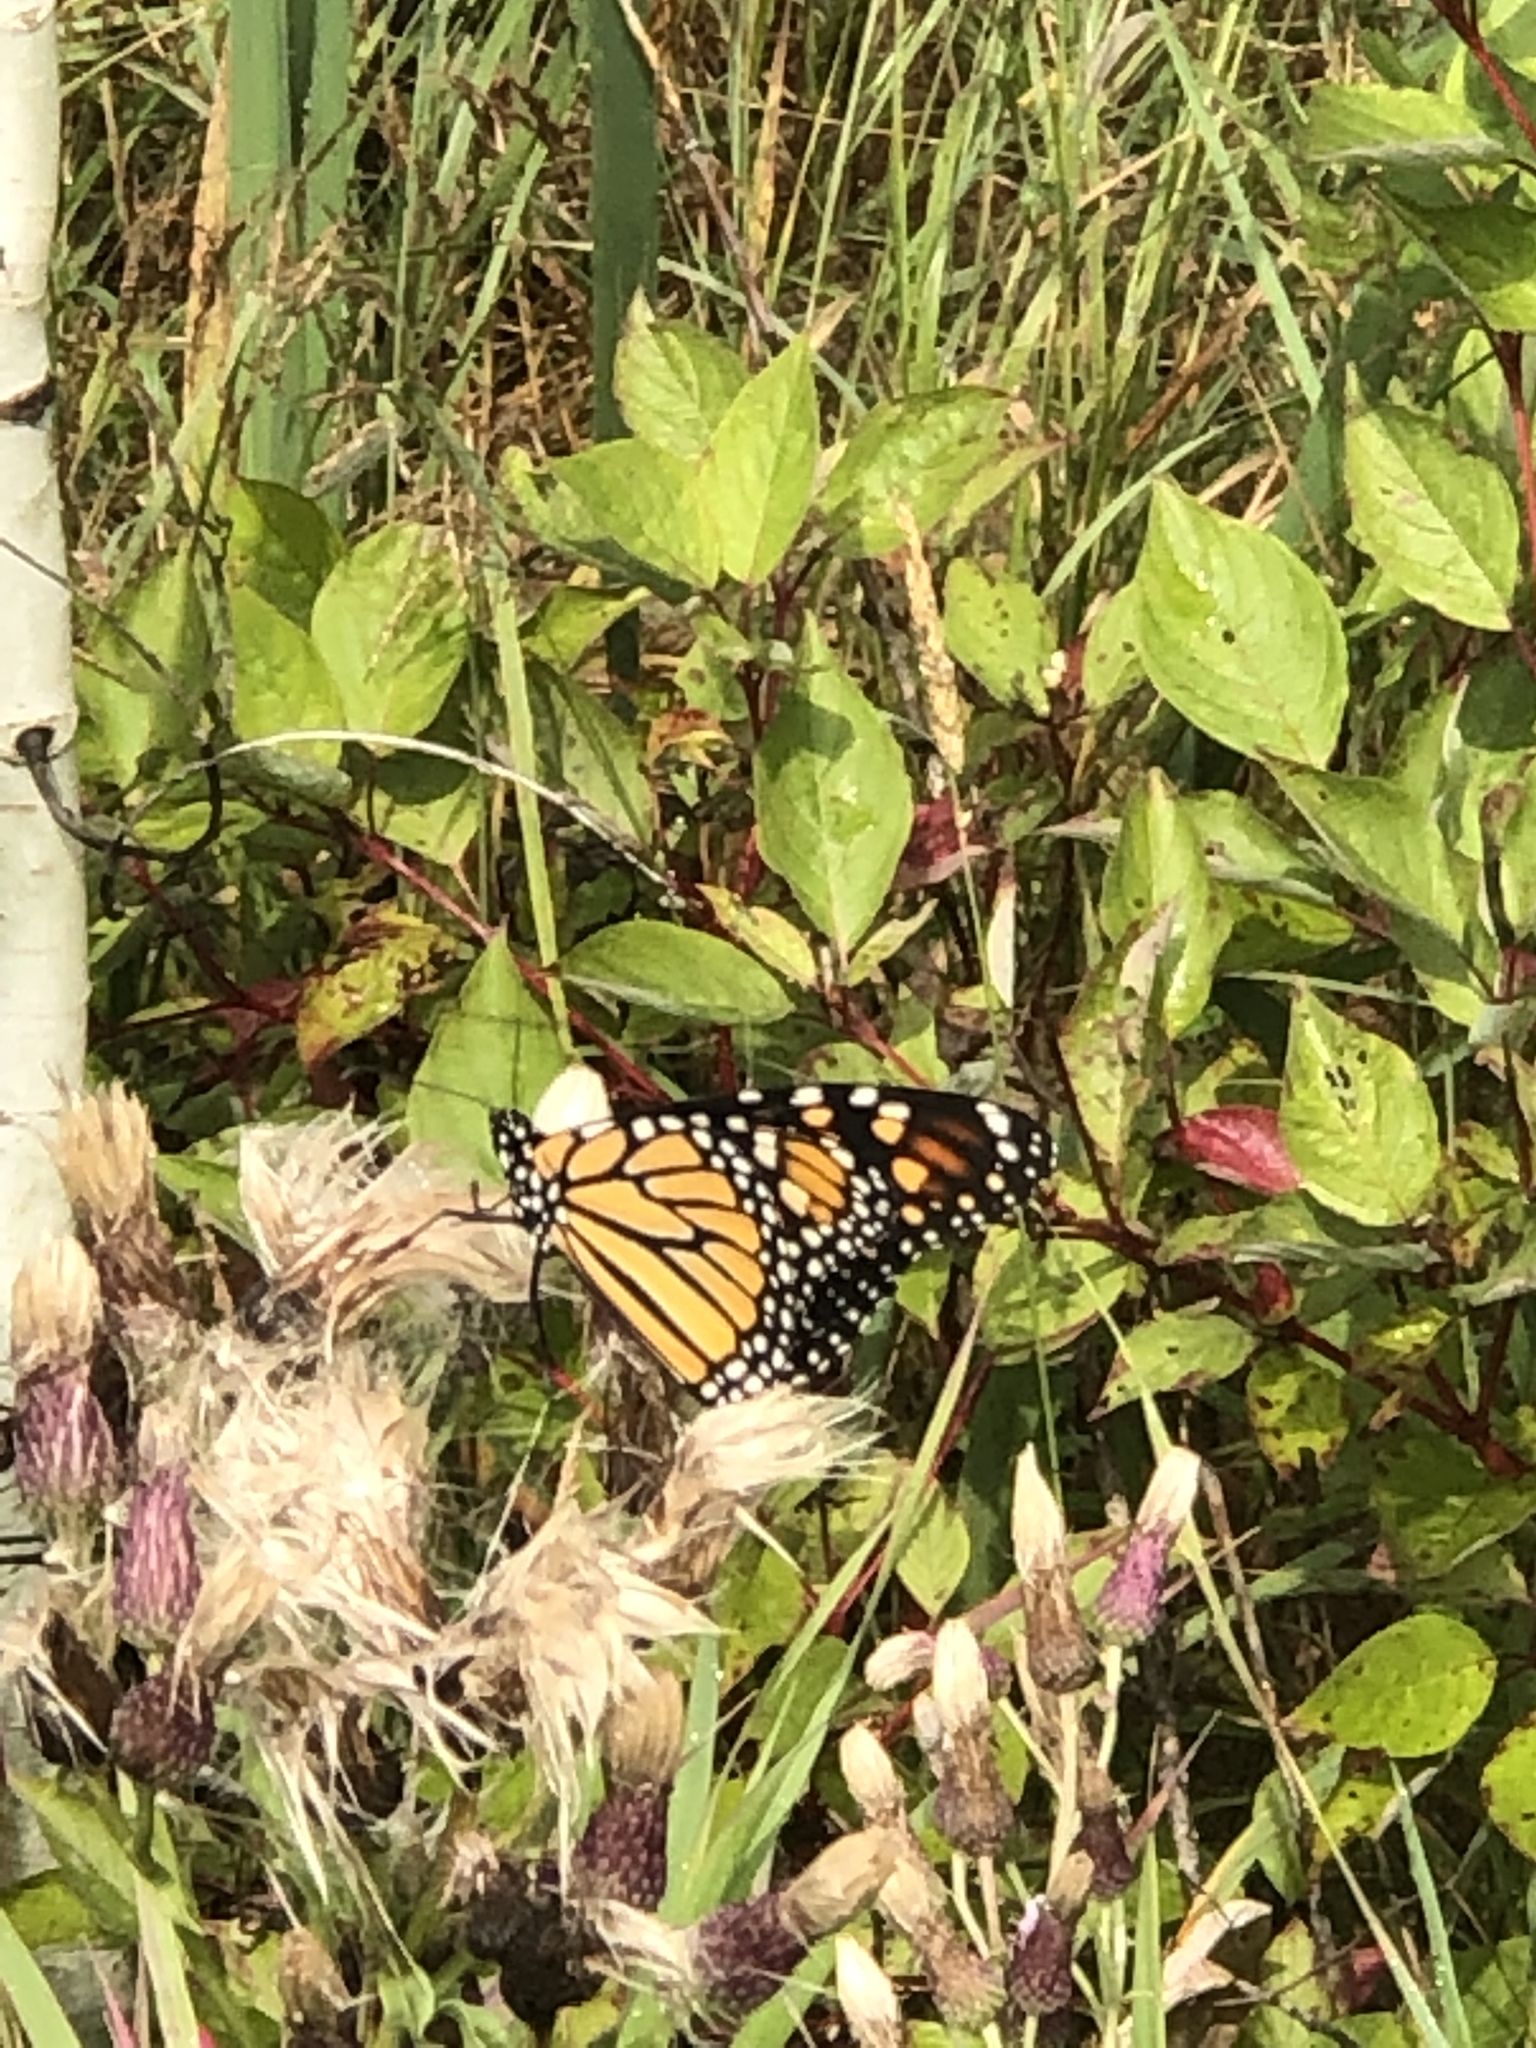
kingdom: Animalia
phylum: Arthropoda
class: Insecta
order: Lepidoptera
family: Nymphalidae
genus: Danaus
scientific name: Danaus plexippus
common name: Monarch
